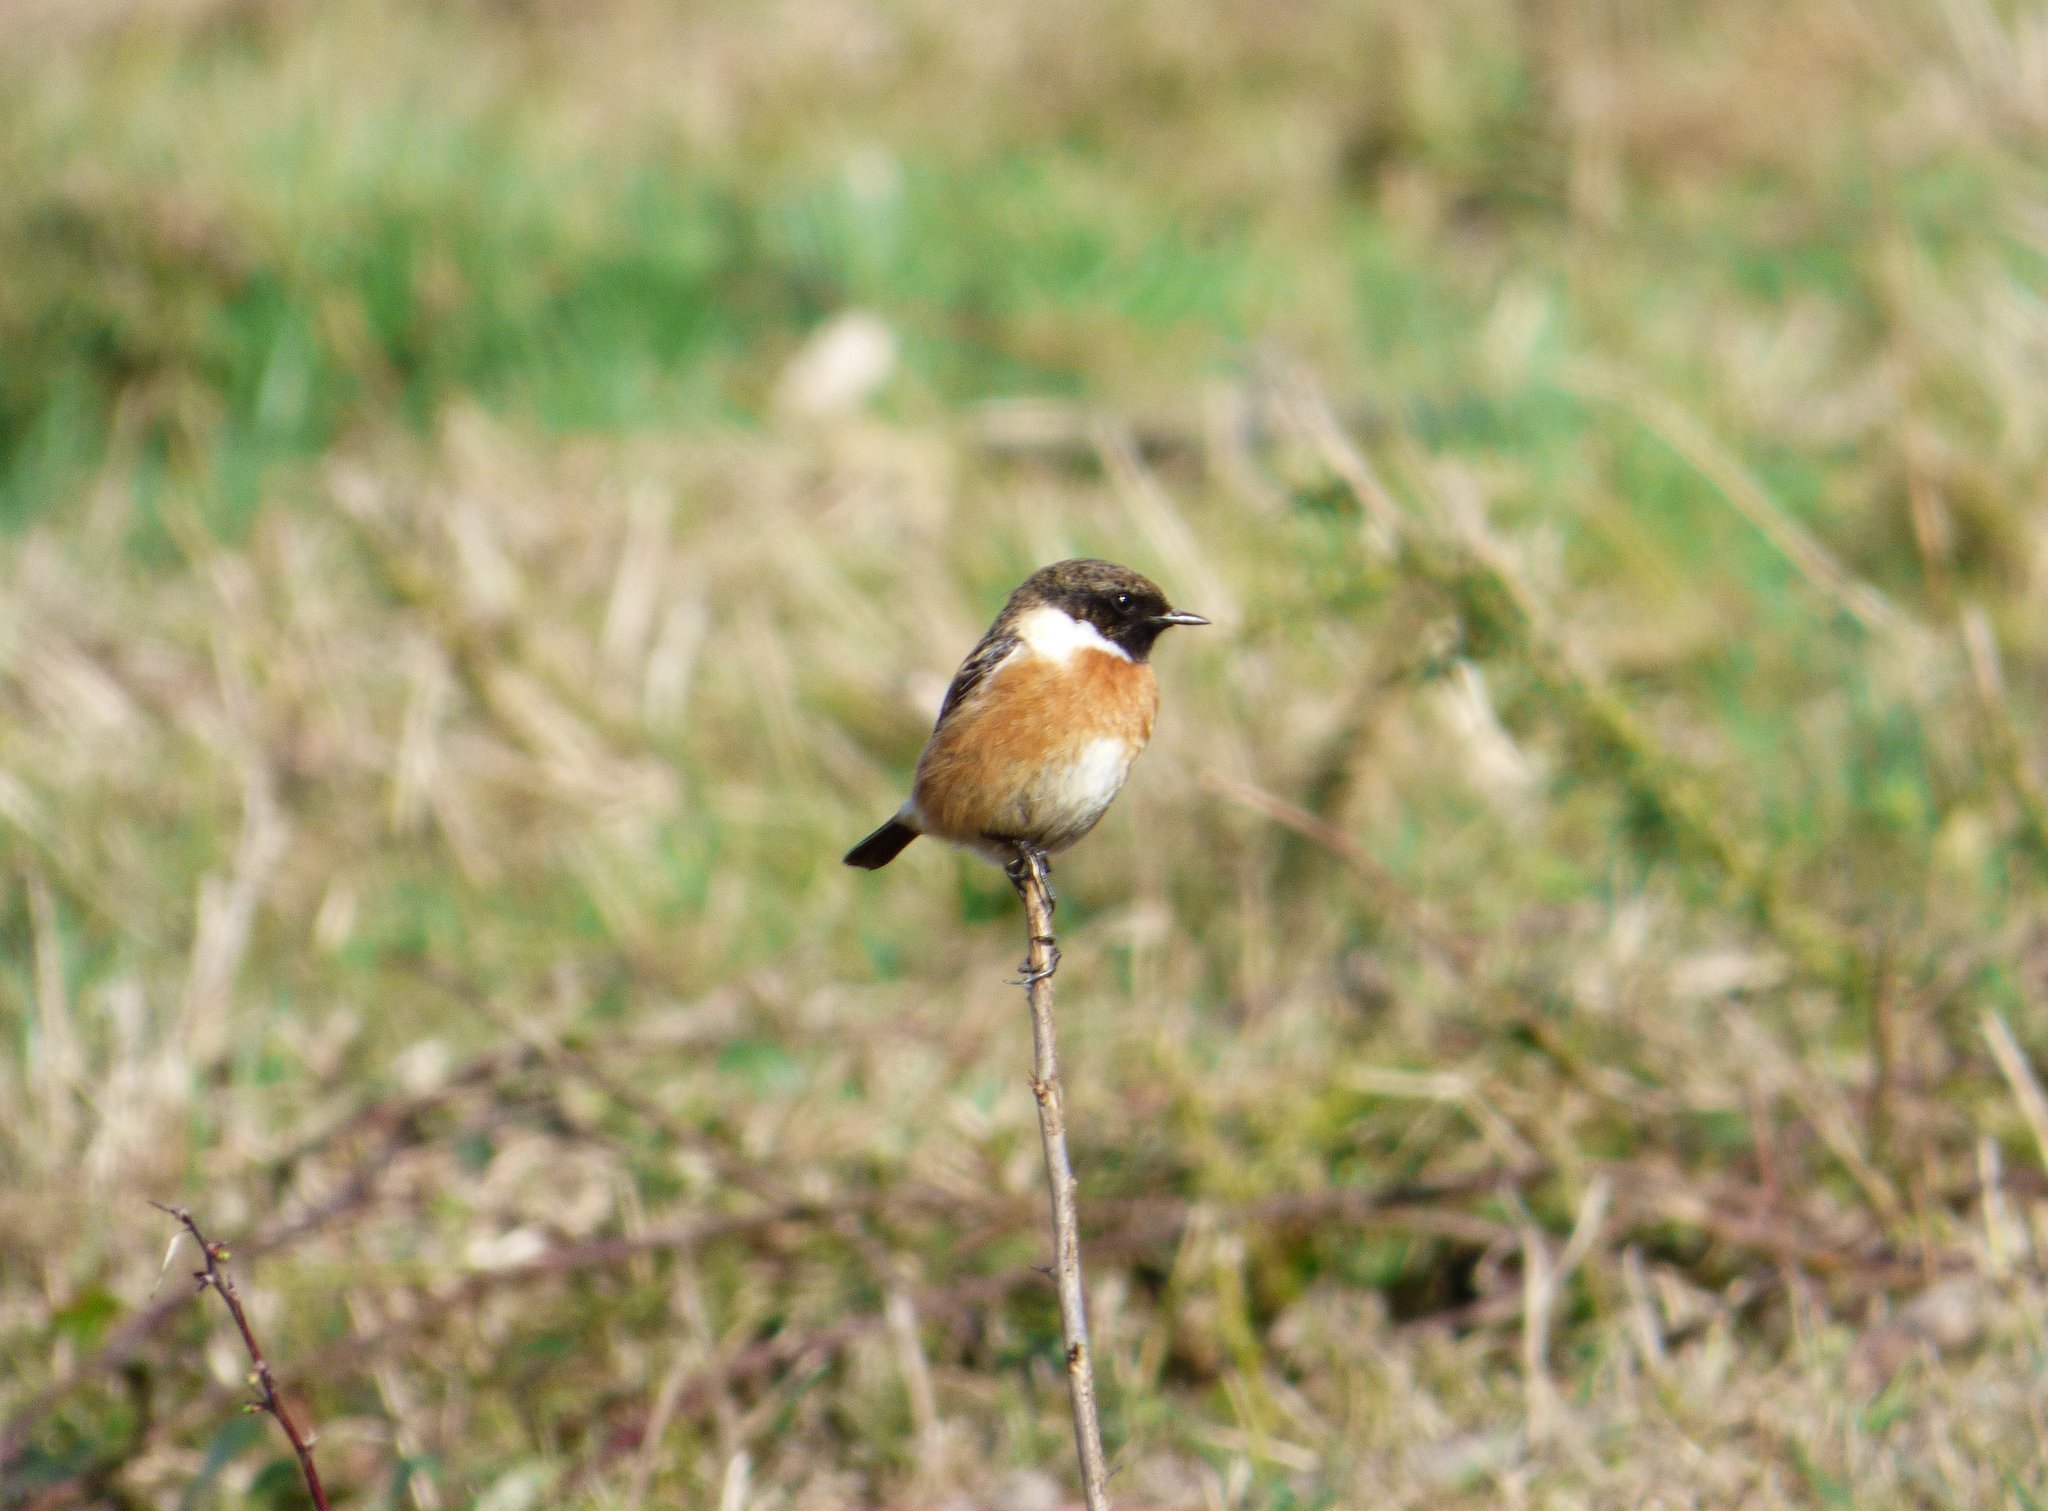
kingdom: Animalia
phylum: Chordata
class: Aves
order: Passeriformes
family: Muscicapidae
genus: Saxicola
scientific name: Saxicola rubicola
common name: European stonechat
